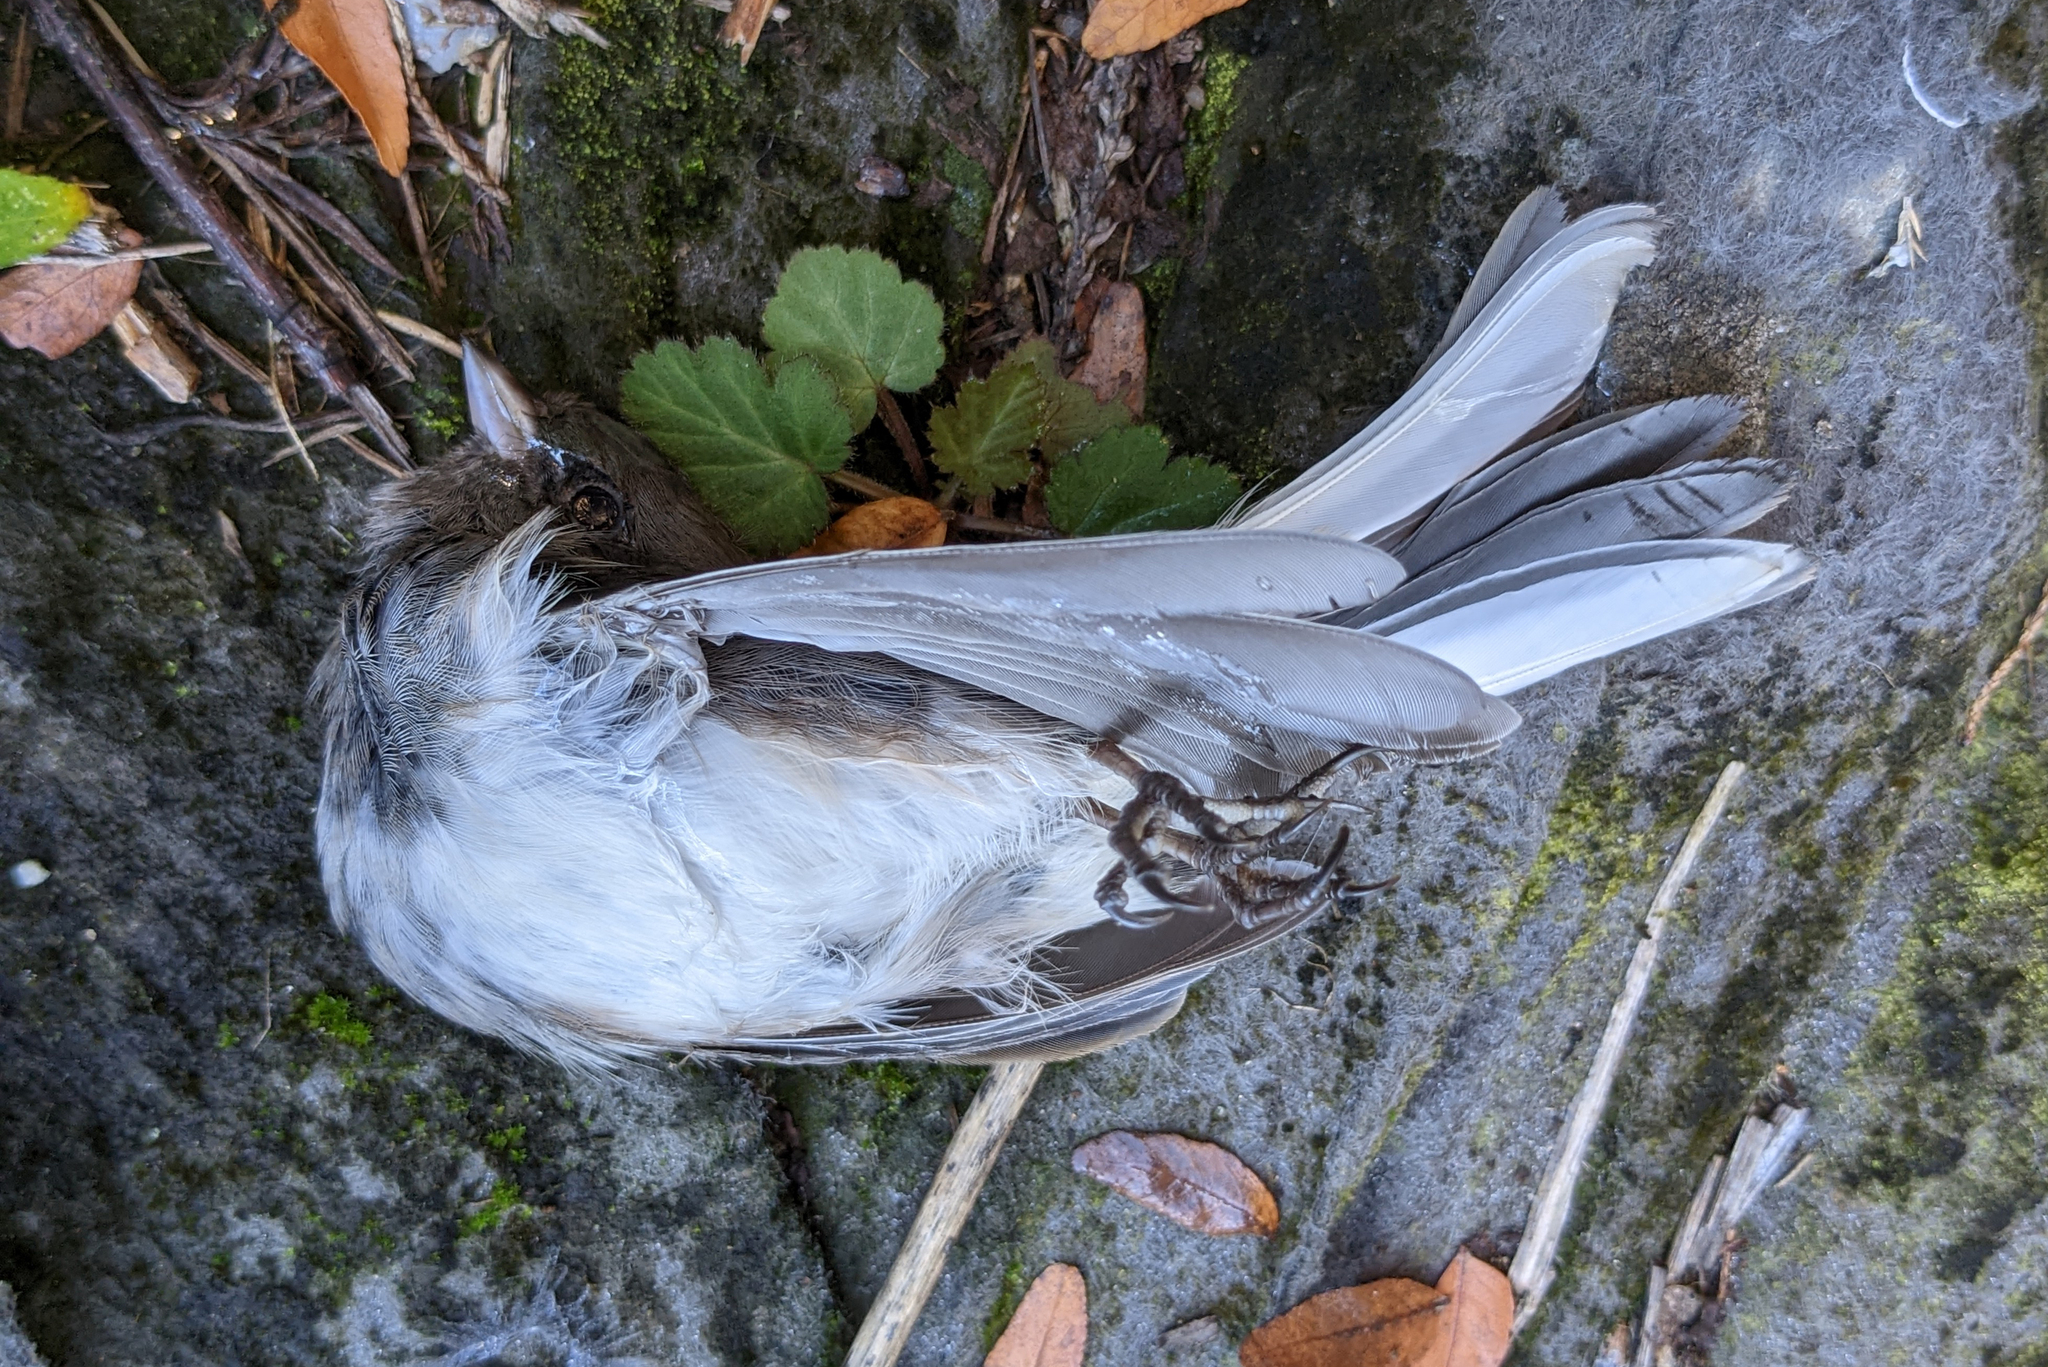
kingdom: Animalia
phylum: Chordata
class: Aves
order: Passeriformes
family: Passerellidae
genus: Junco
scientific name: Junco hyemalis
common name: Dark-eyed junco
